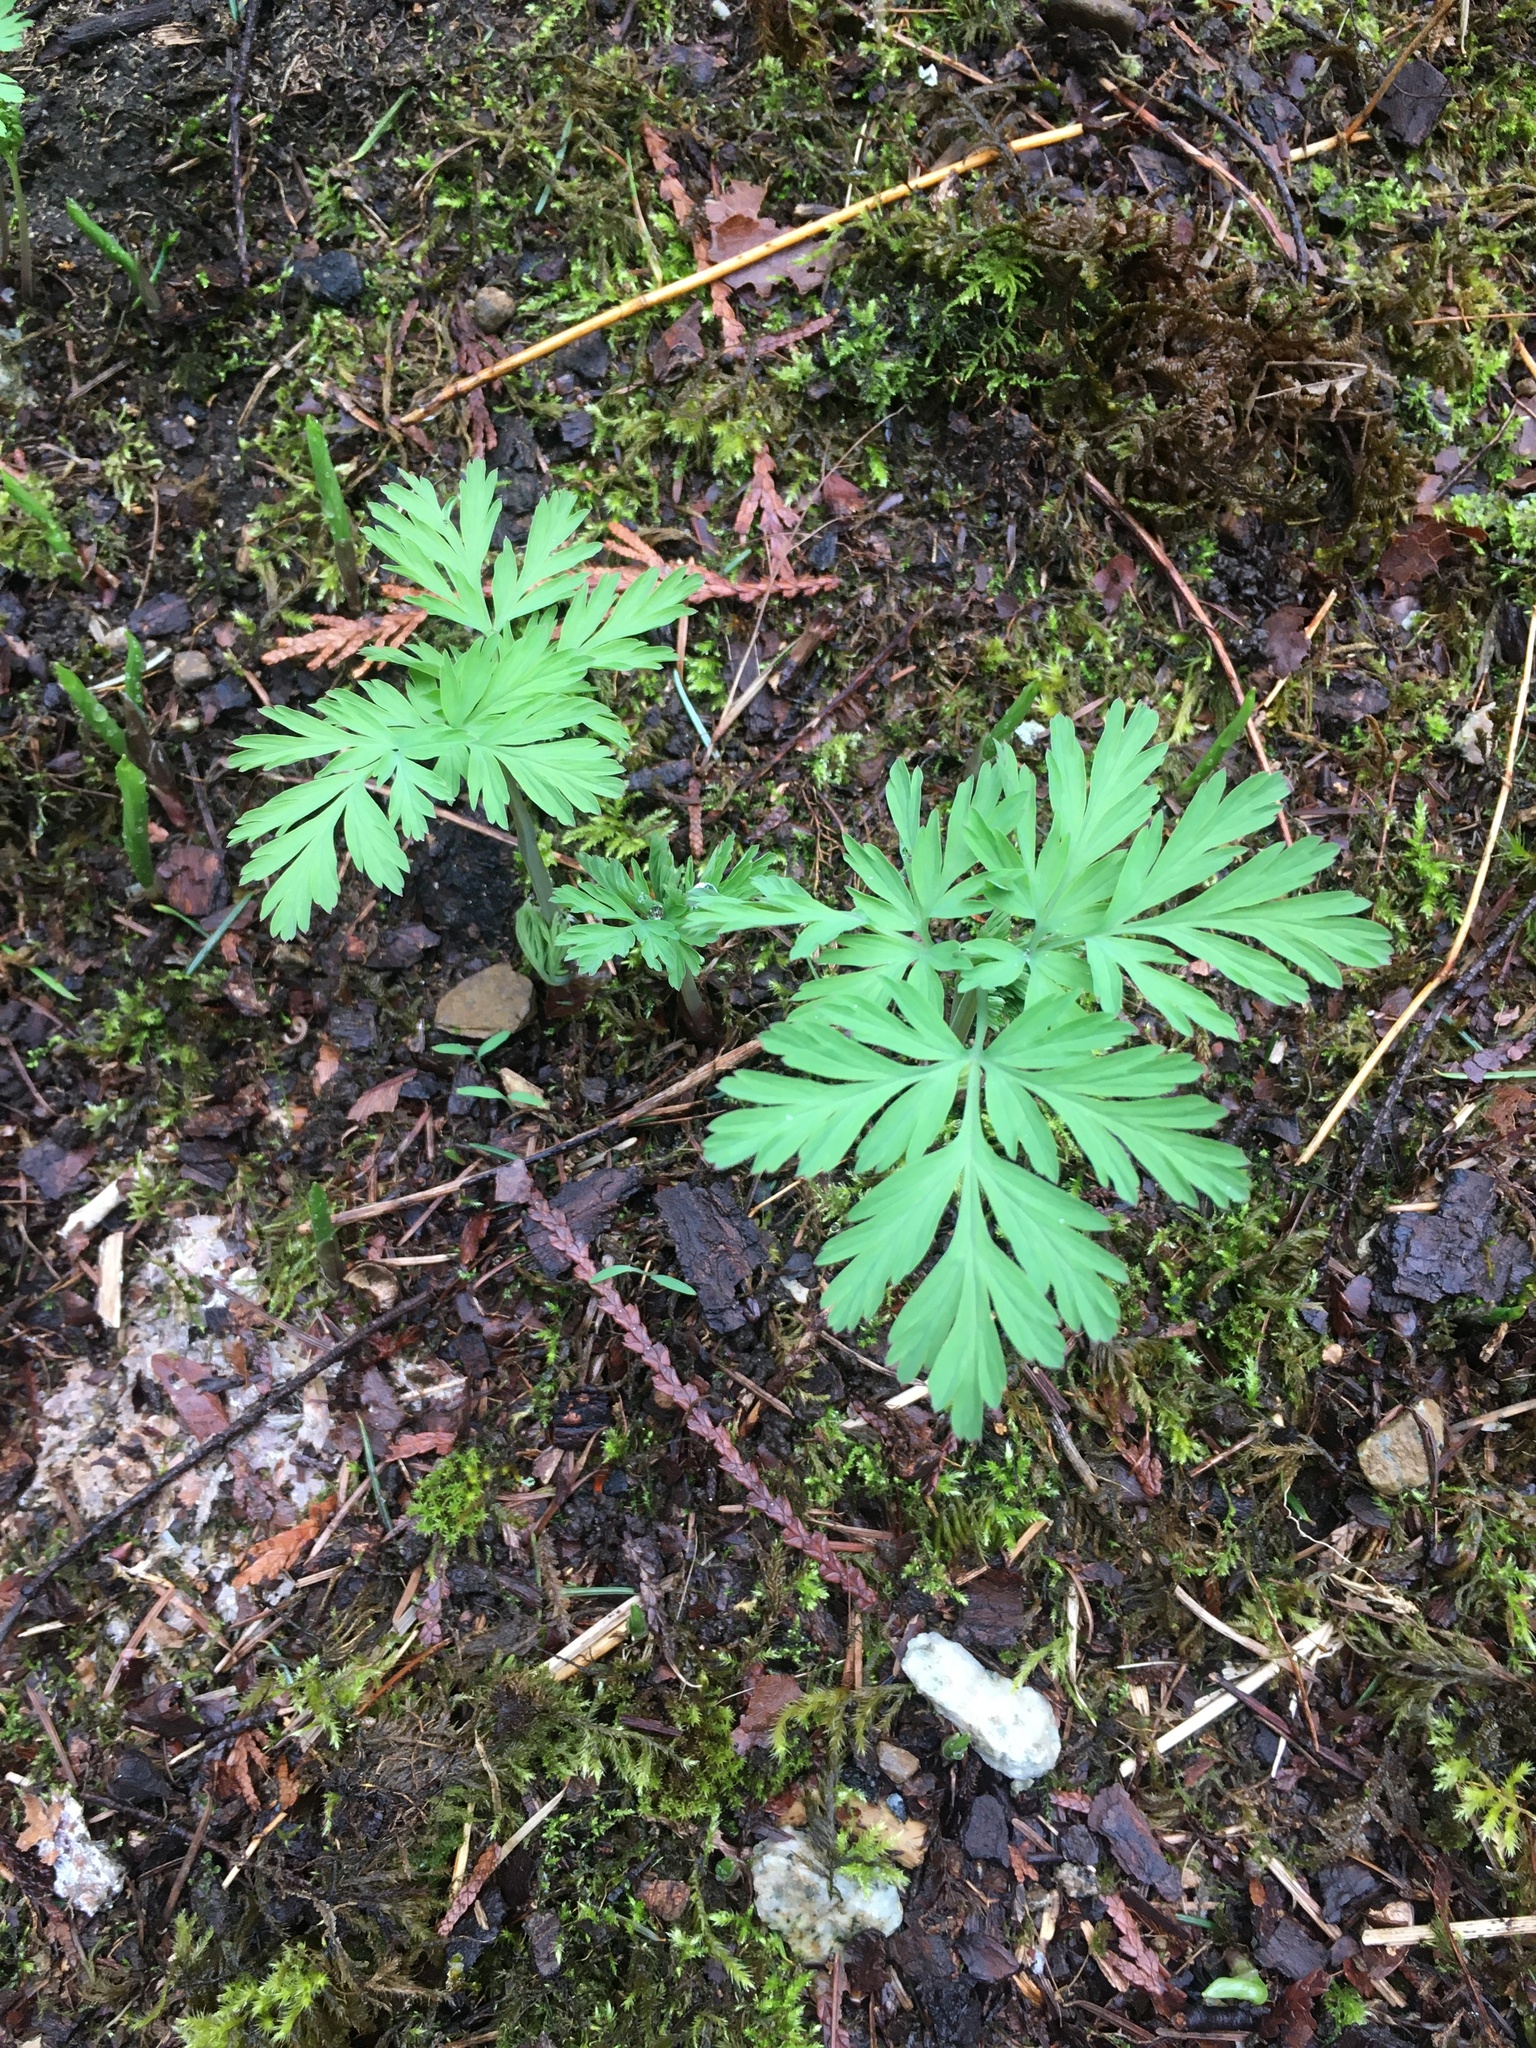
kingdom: Plantae
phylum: Tracheophyta
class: Magnoliopsida
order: Ranunculales
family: Papaveraceae
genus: Dicentra
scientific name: Dicentra formosa
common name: Bleeding-heart
